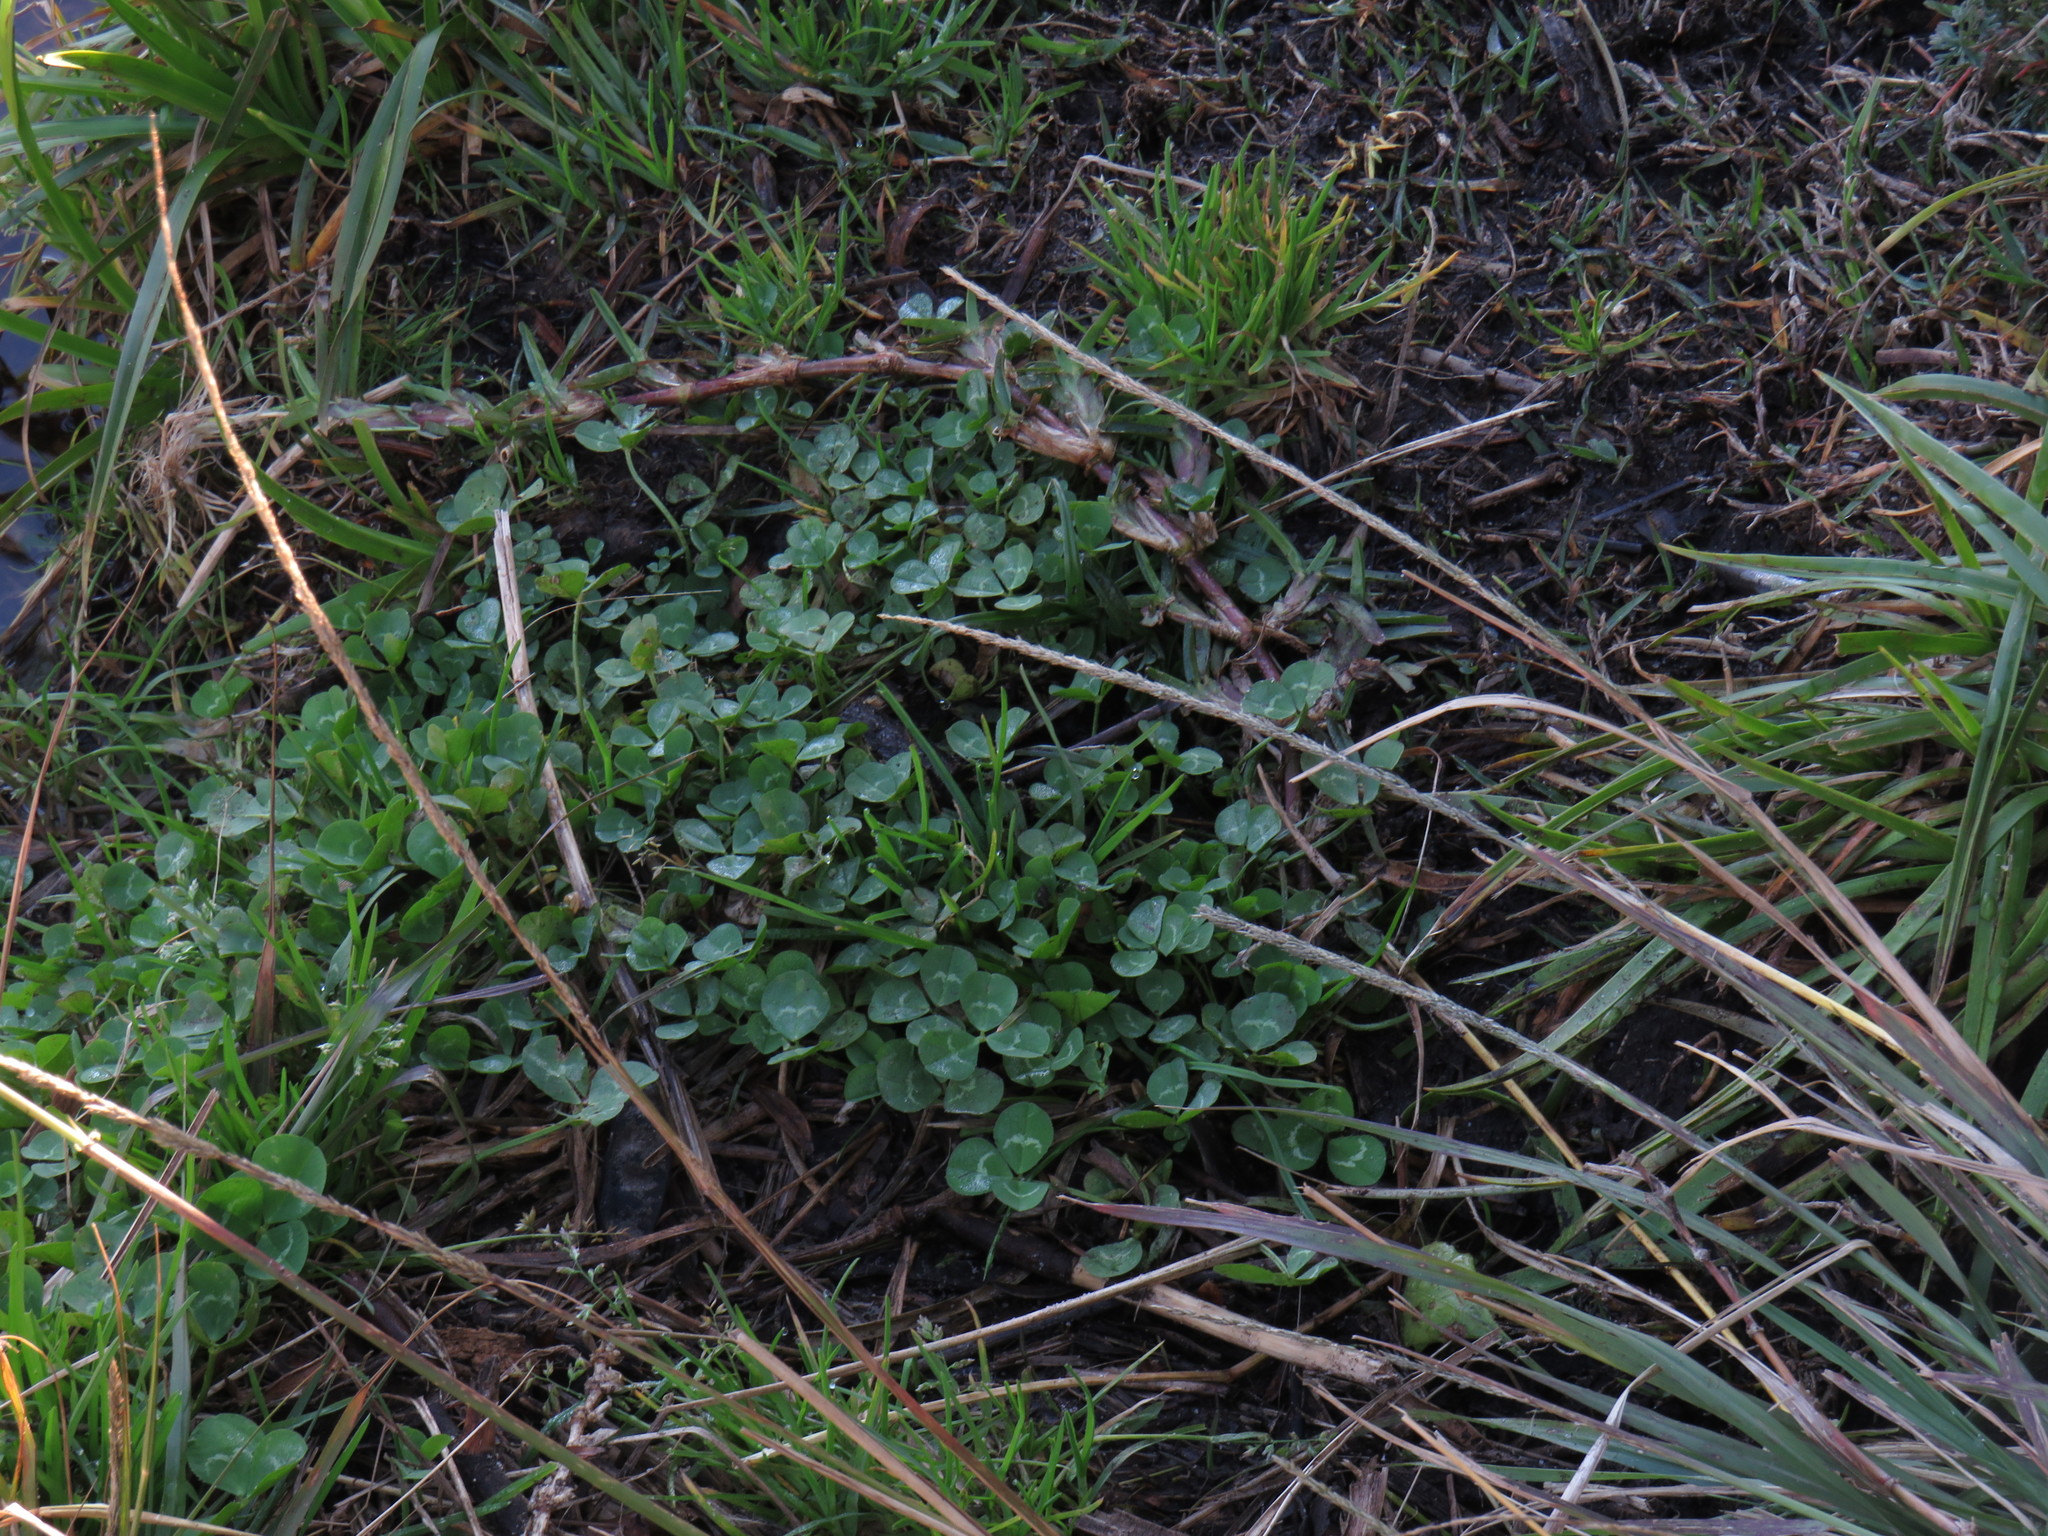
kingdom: Plantae
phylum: Tracheophyta
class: Magnoliopsida
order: Fabales
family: Fabaceae
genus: Trifolium
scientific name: Trifolium repens
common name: White clover
